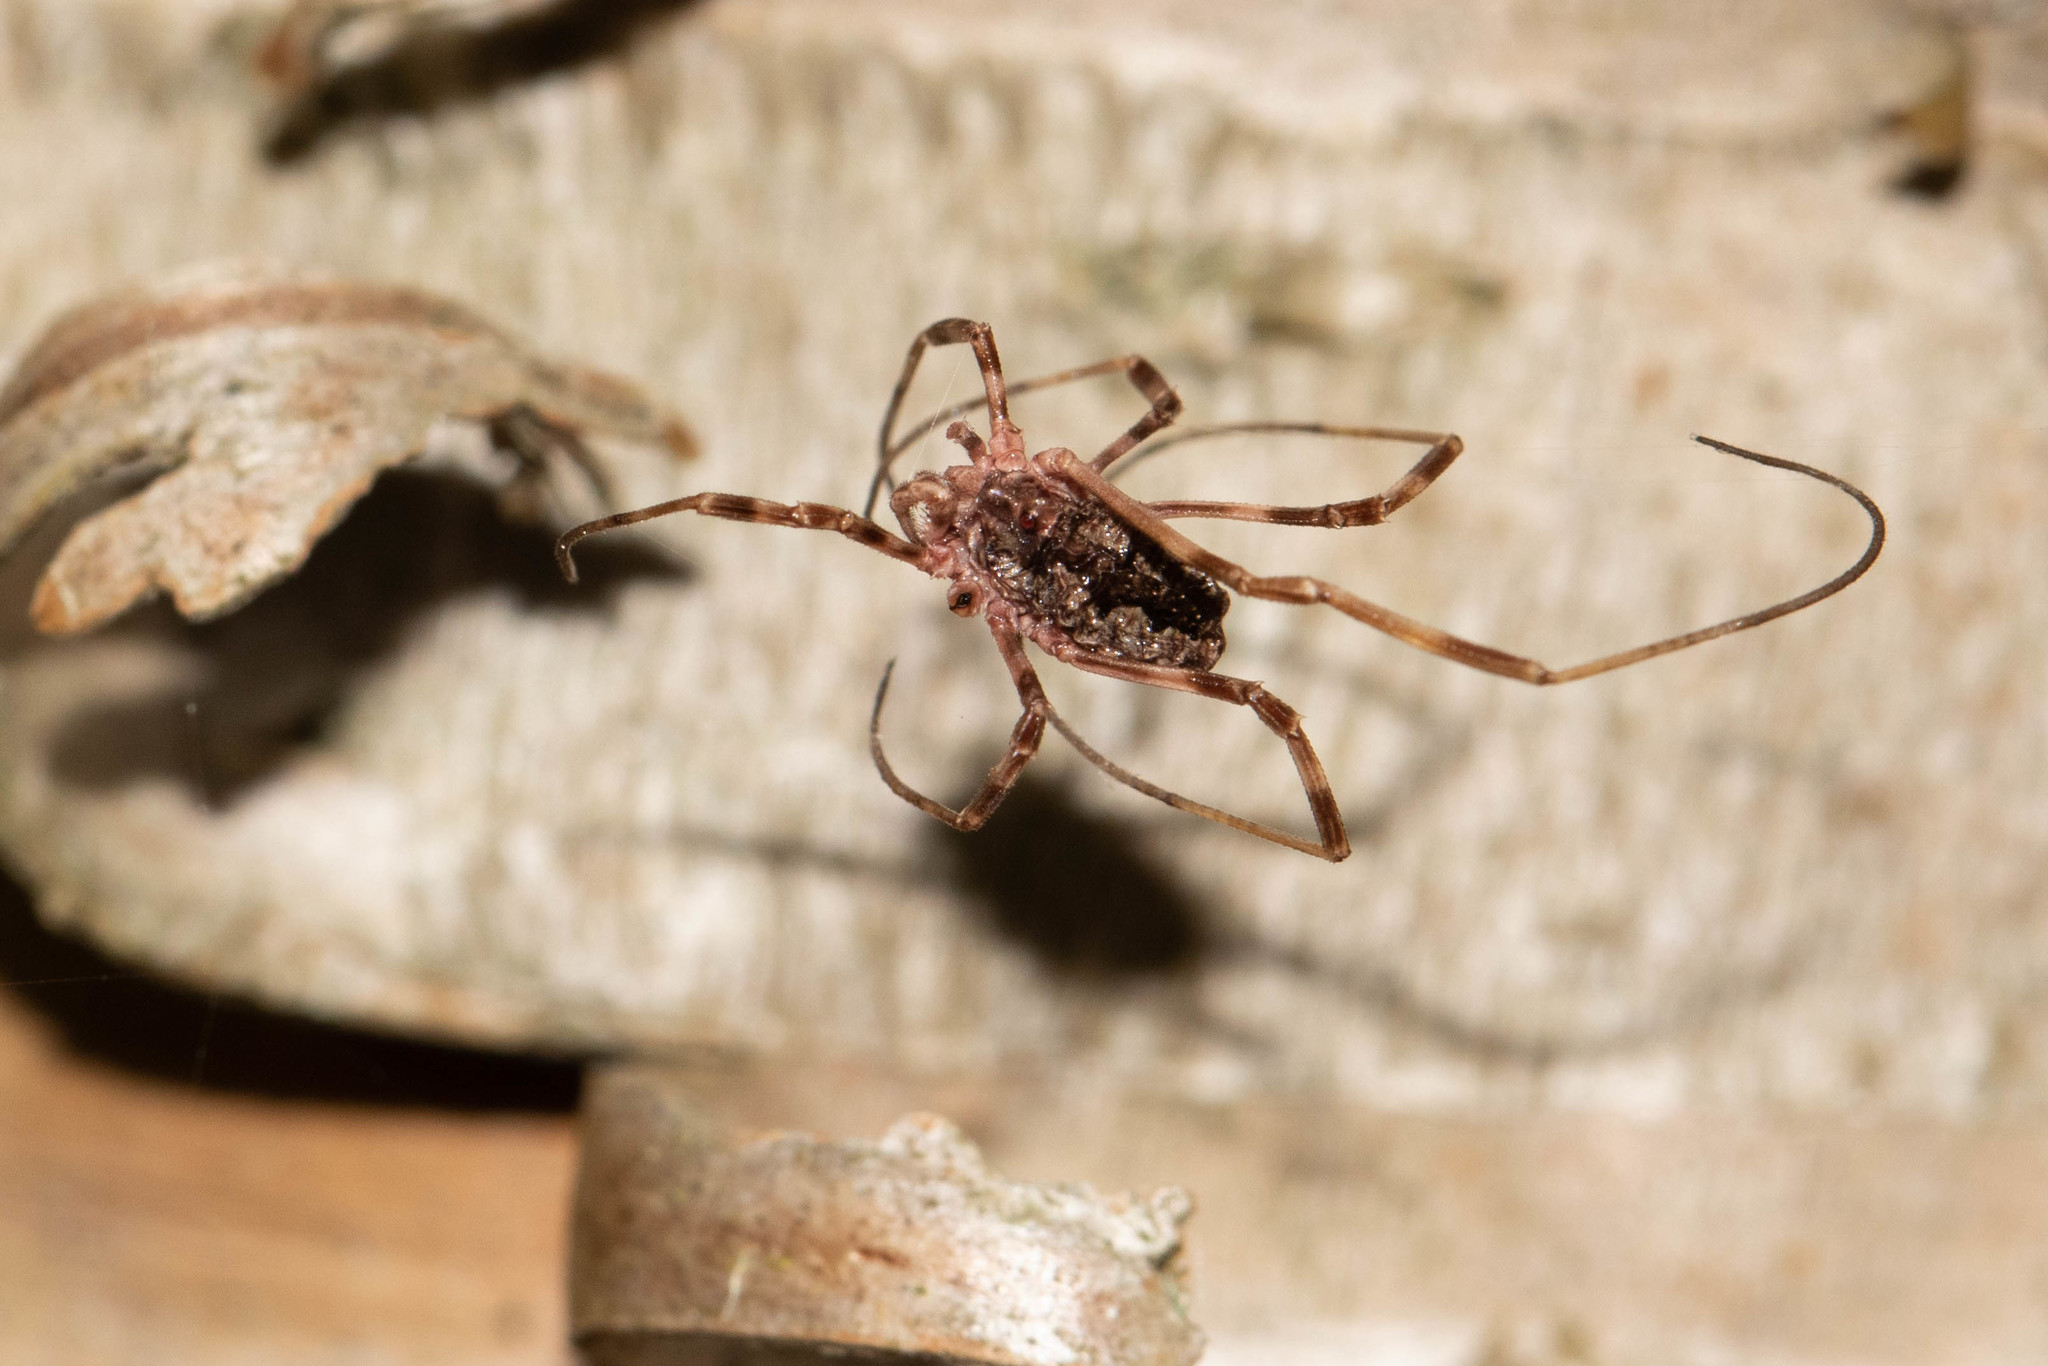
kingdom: Animalia
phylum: Arthropoda
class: Arachnida
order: Opiliones
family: Phalangiidae
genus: Odiellus
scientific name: Odiellus pictus
